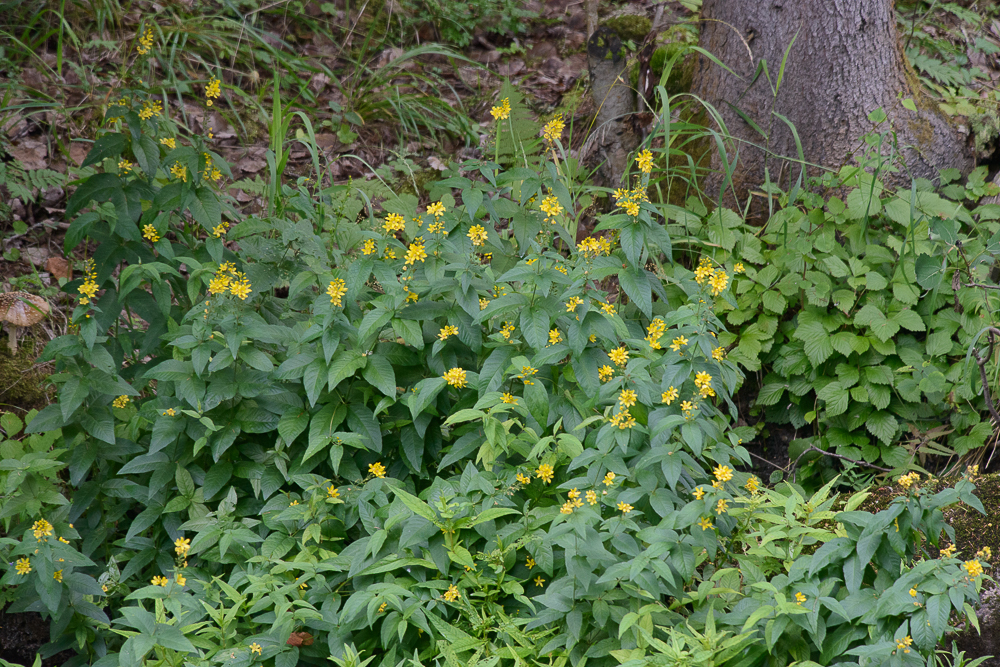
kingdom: Plantae
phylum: Tracheophyta
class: Magnoliopsida
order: Ericales
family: Primulaceae
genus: Lysimachia
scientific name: Lysimachia vulgaris
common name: Yellow loosestrife
